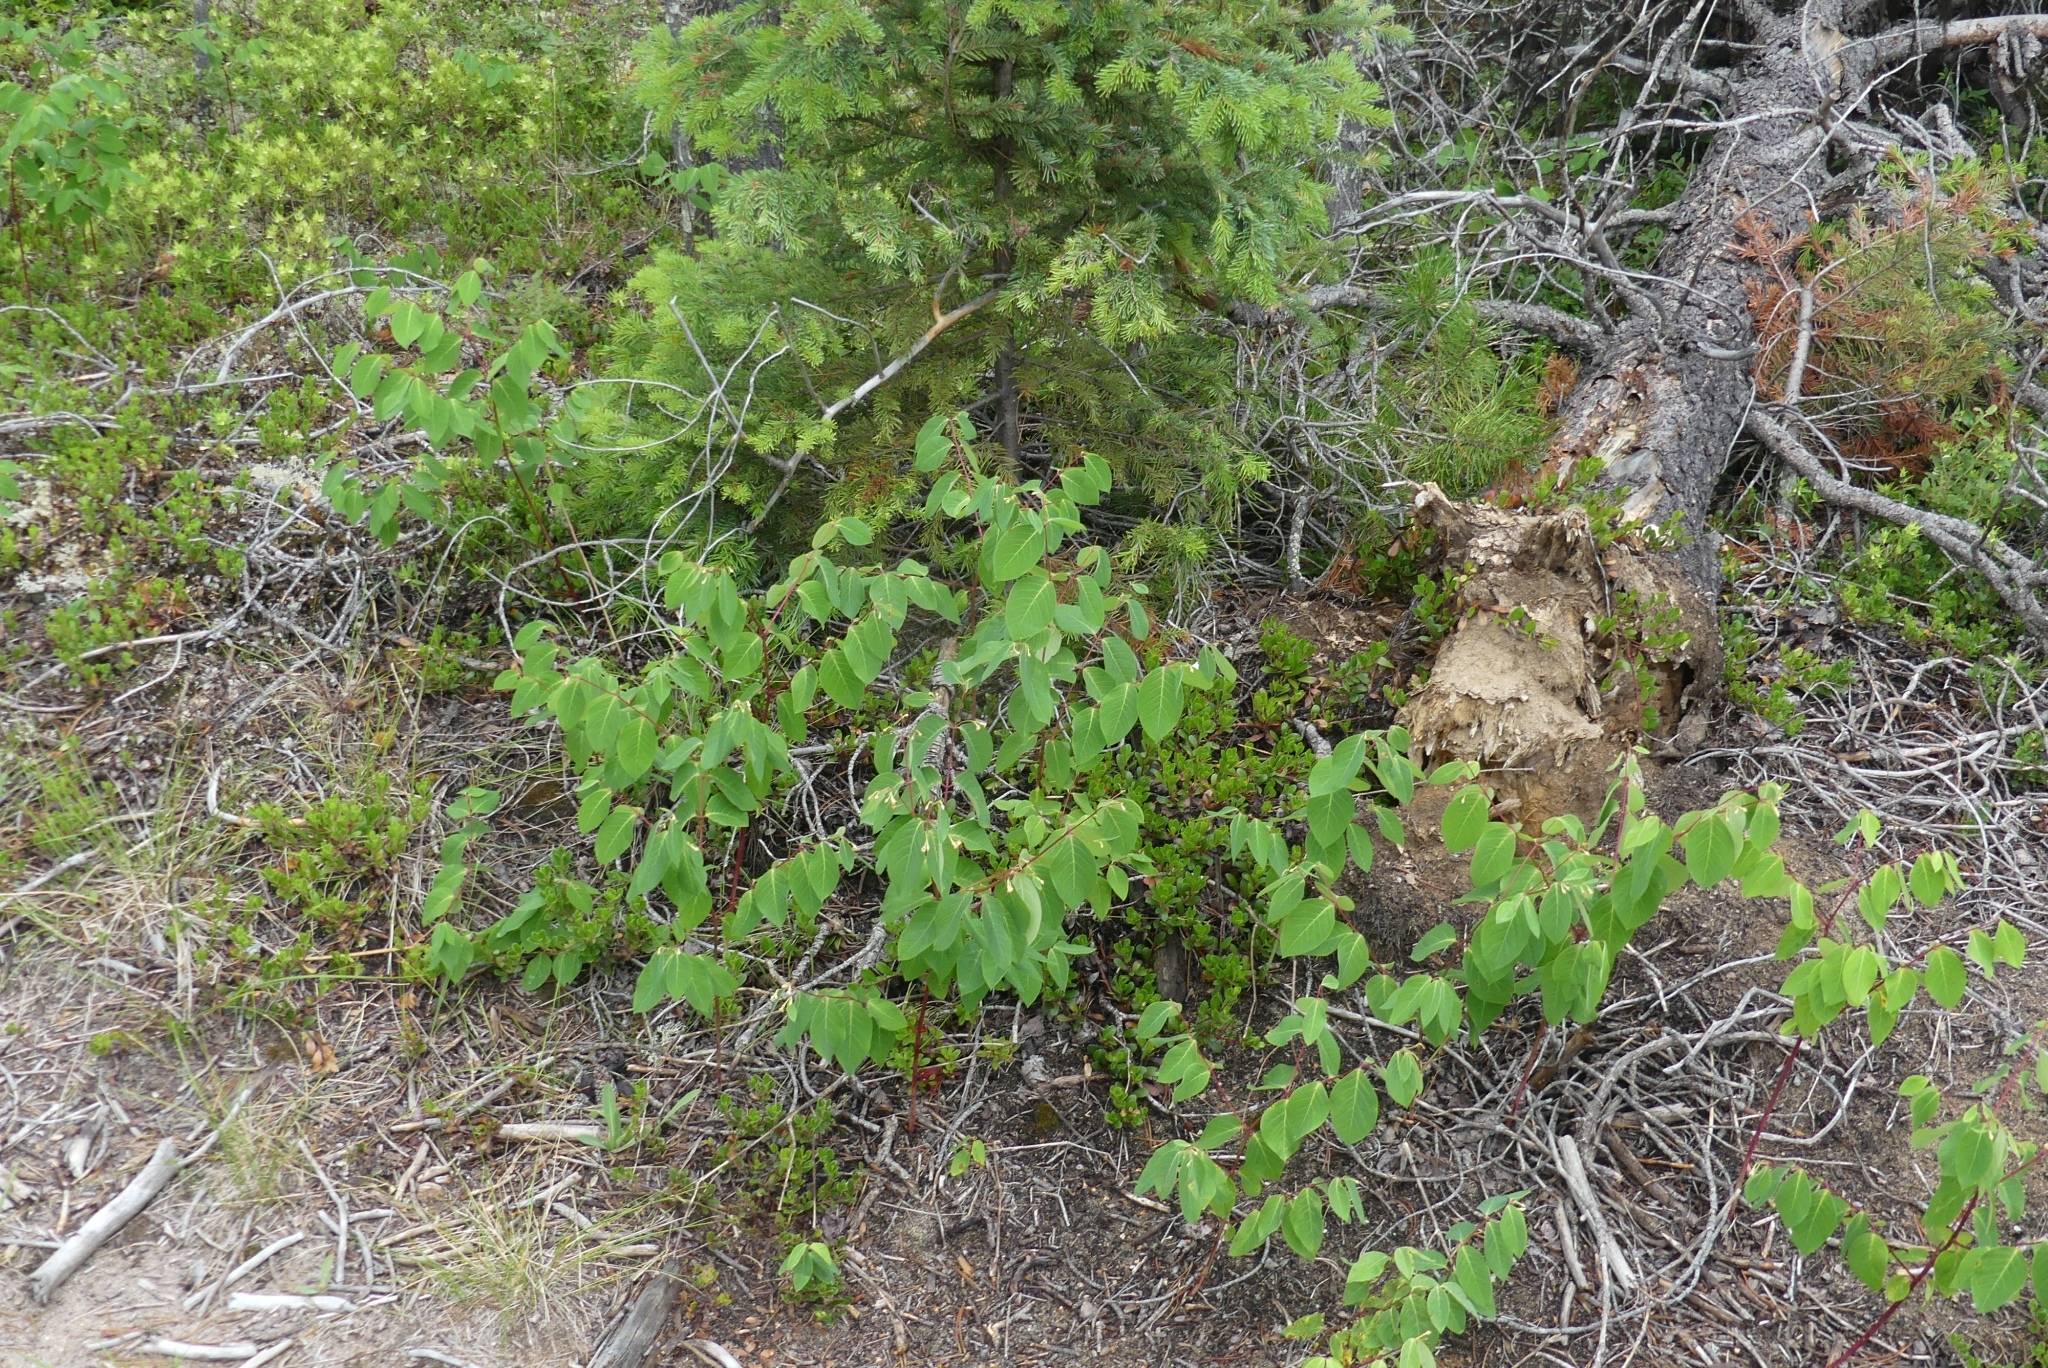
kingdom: Plantae
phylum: Tracheophyta
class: Magnoliopsida
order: Gentianales
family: Apocynaceae
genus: Apocynum
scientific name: Apocynum androsaemifolium
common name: Spreading dogbane
